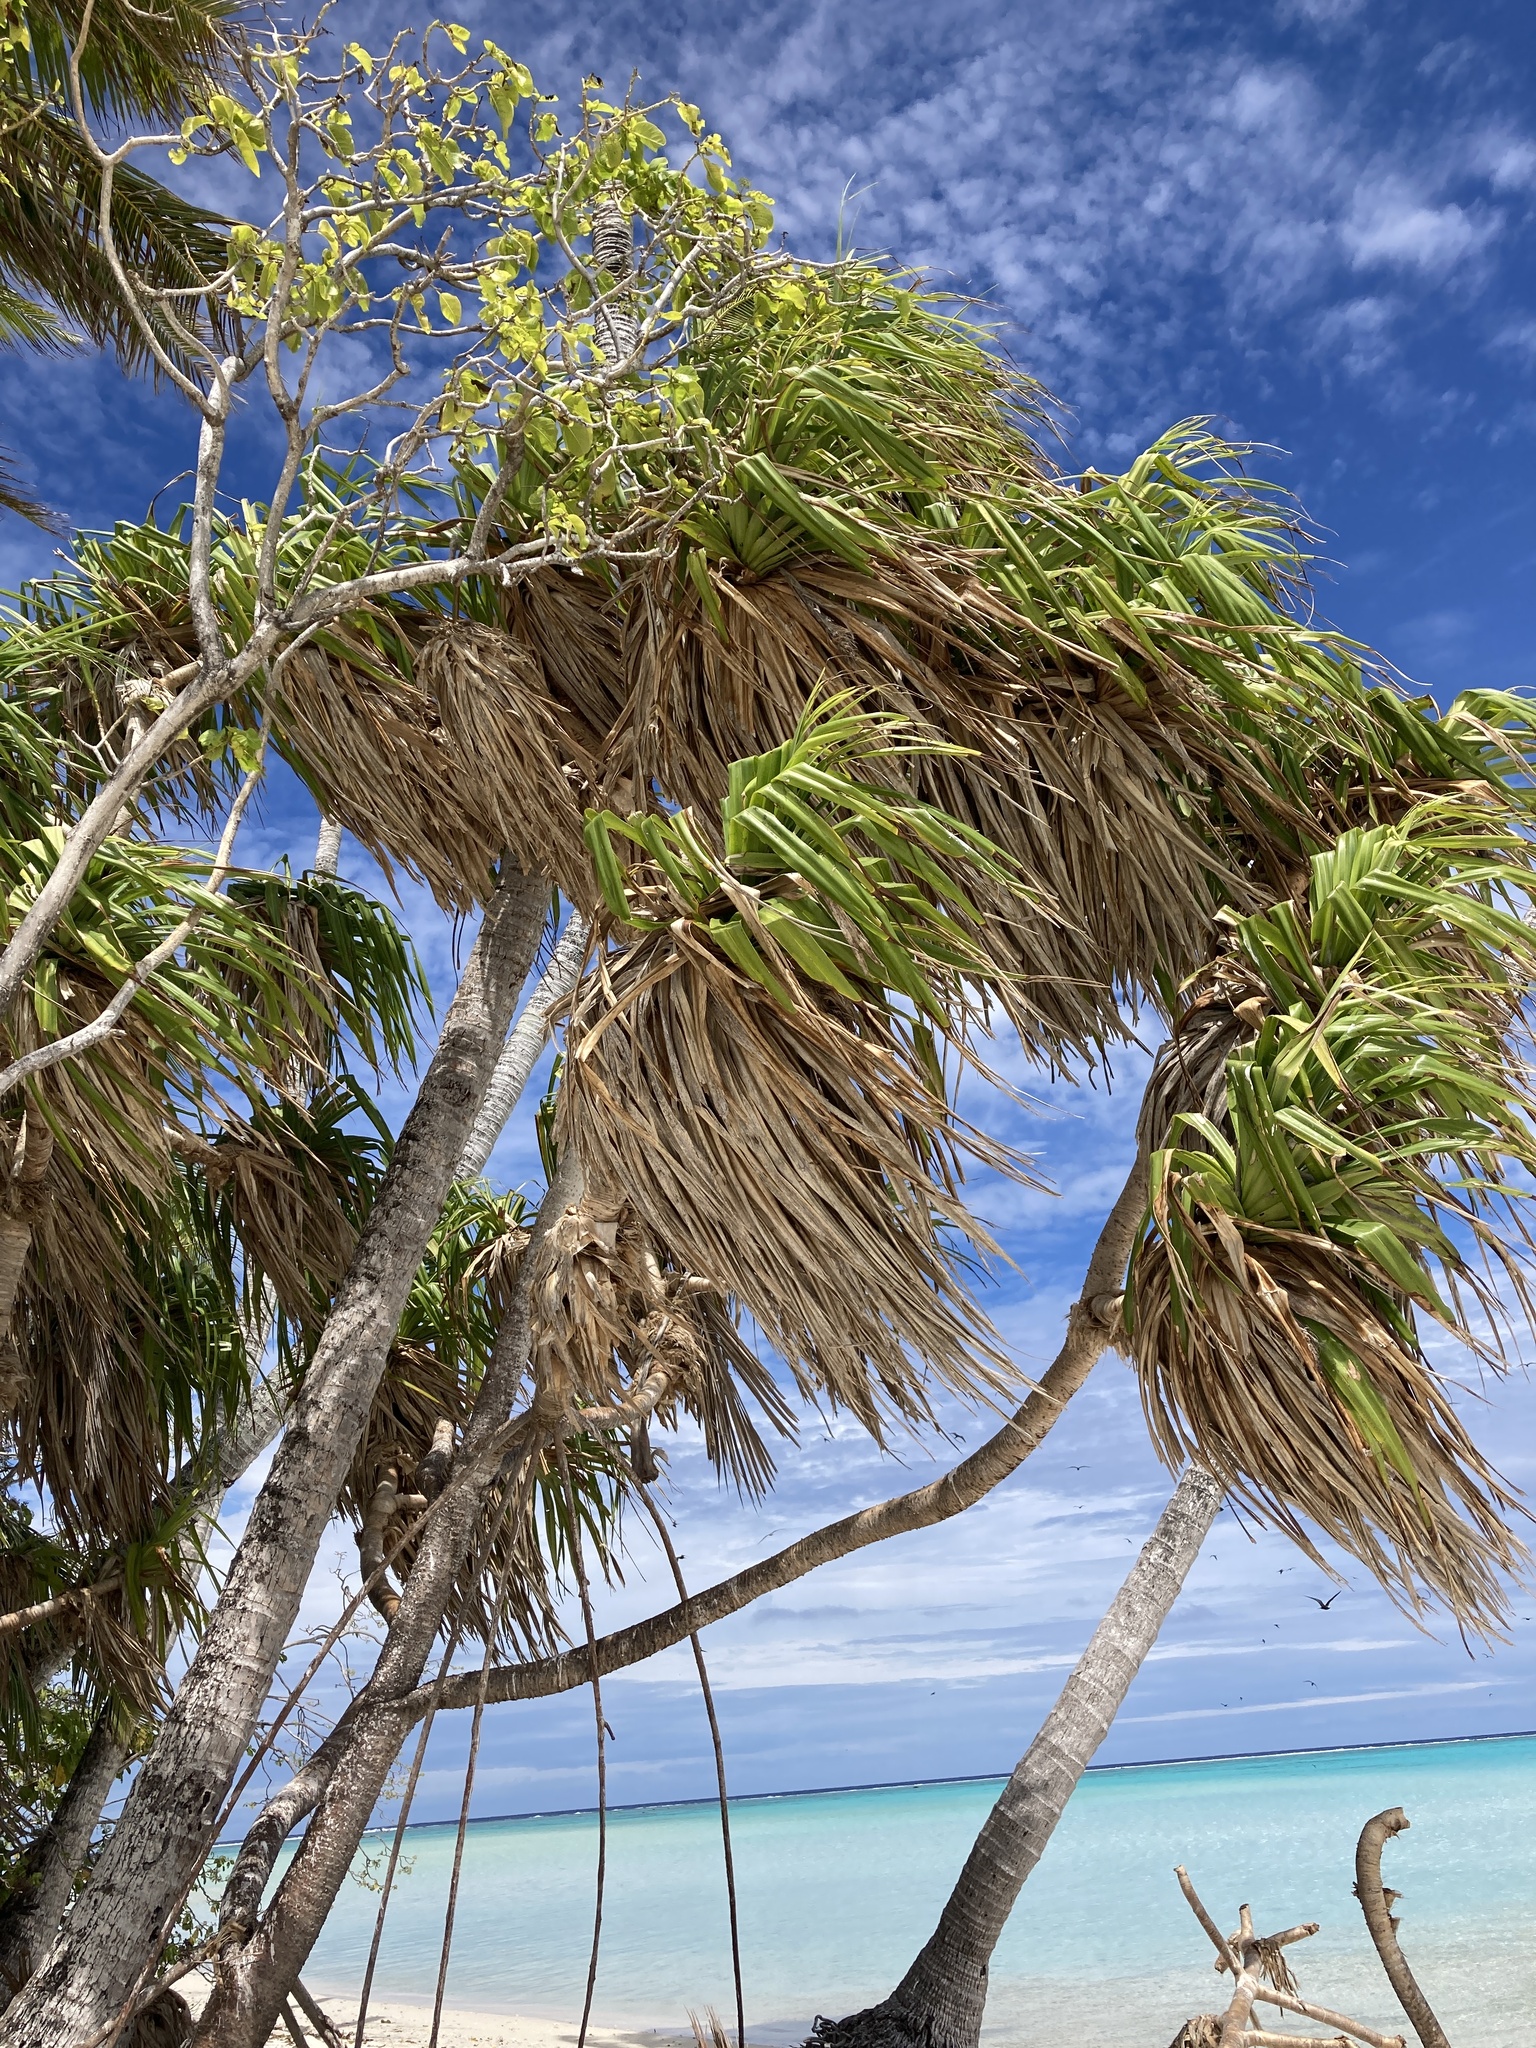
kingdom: Plantae
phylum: Tracheophyta
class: Liliopsida
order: Pandanales
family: Pandanaceae
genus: Pandanus
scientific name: Pandanus tectorius
